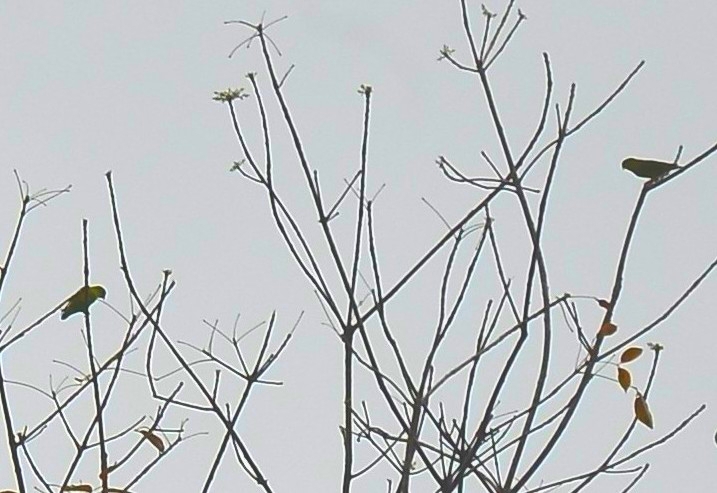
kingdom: Animalia
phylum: Chordata
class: Aves
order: Psittaciformes
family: Psittacidae
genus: Loriculus
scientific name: Loriculus vernalis
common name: Vernal hanging parrot
